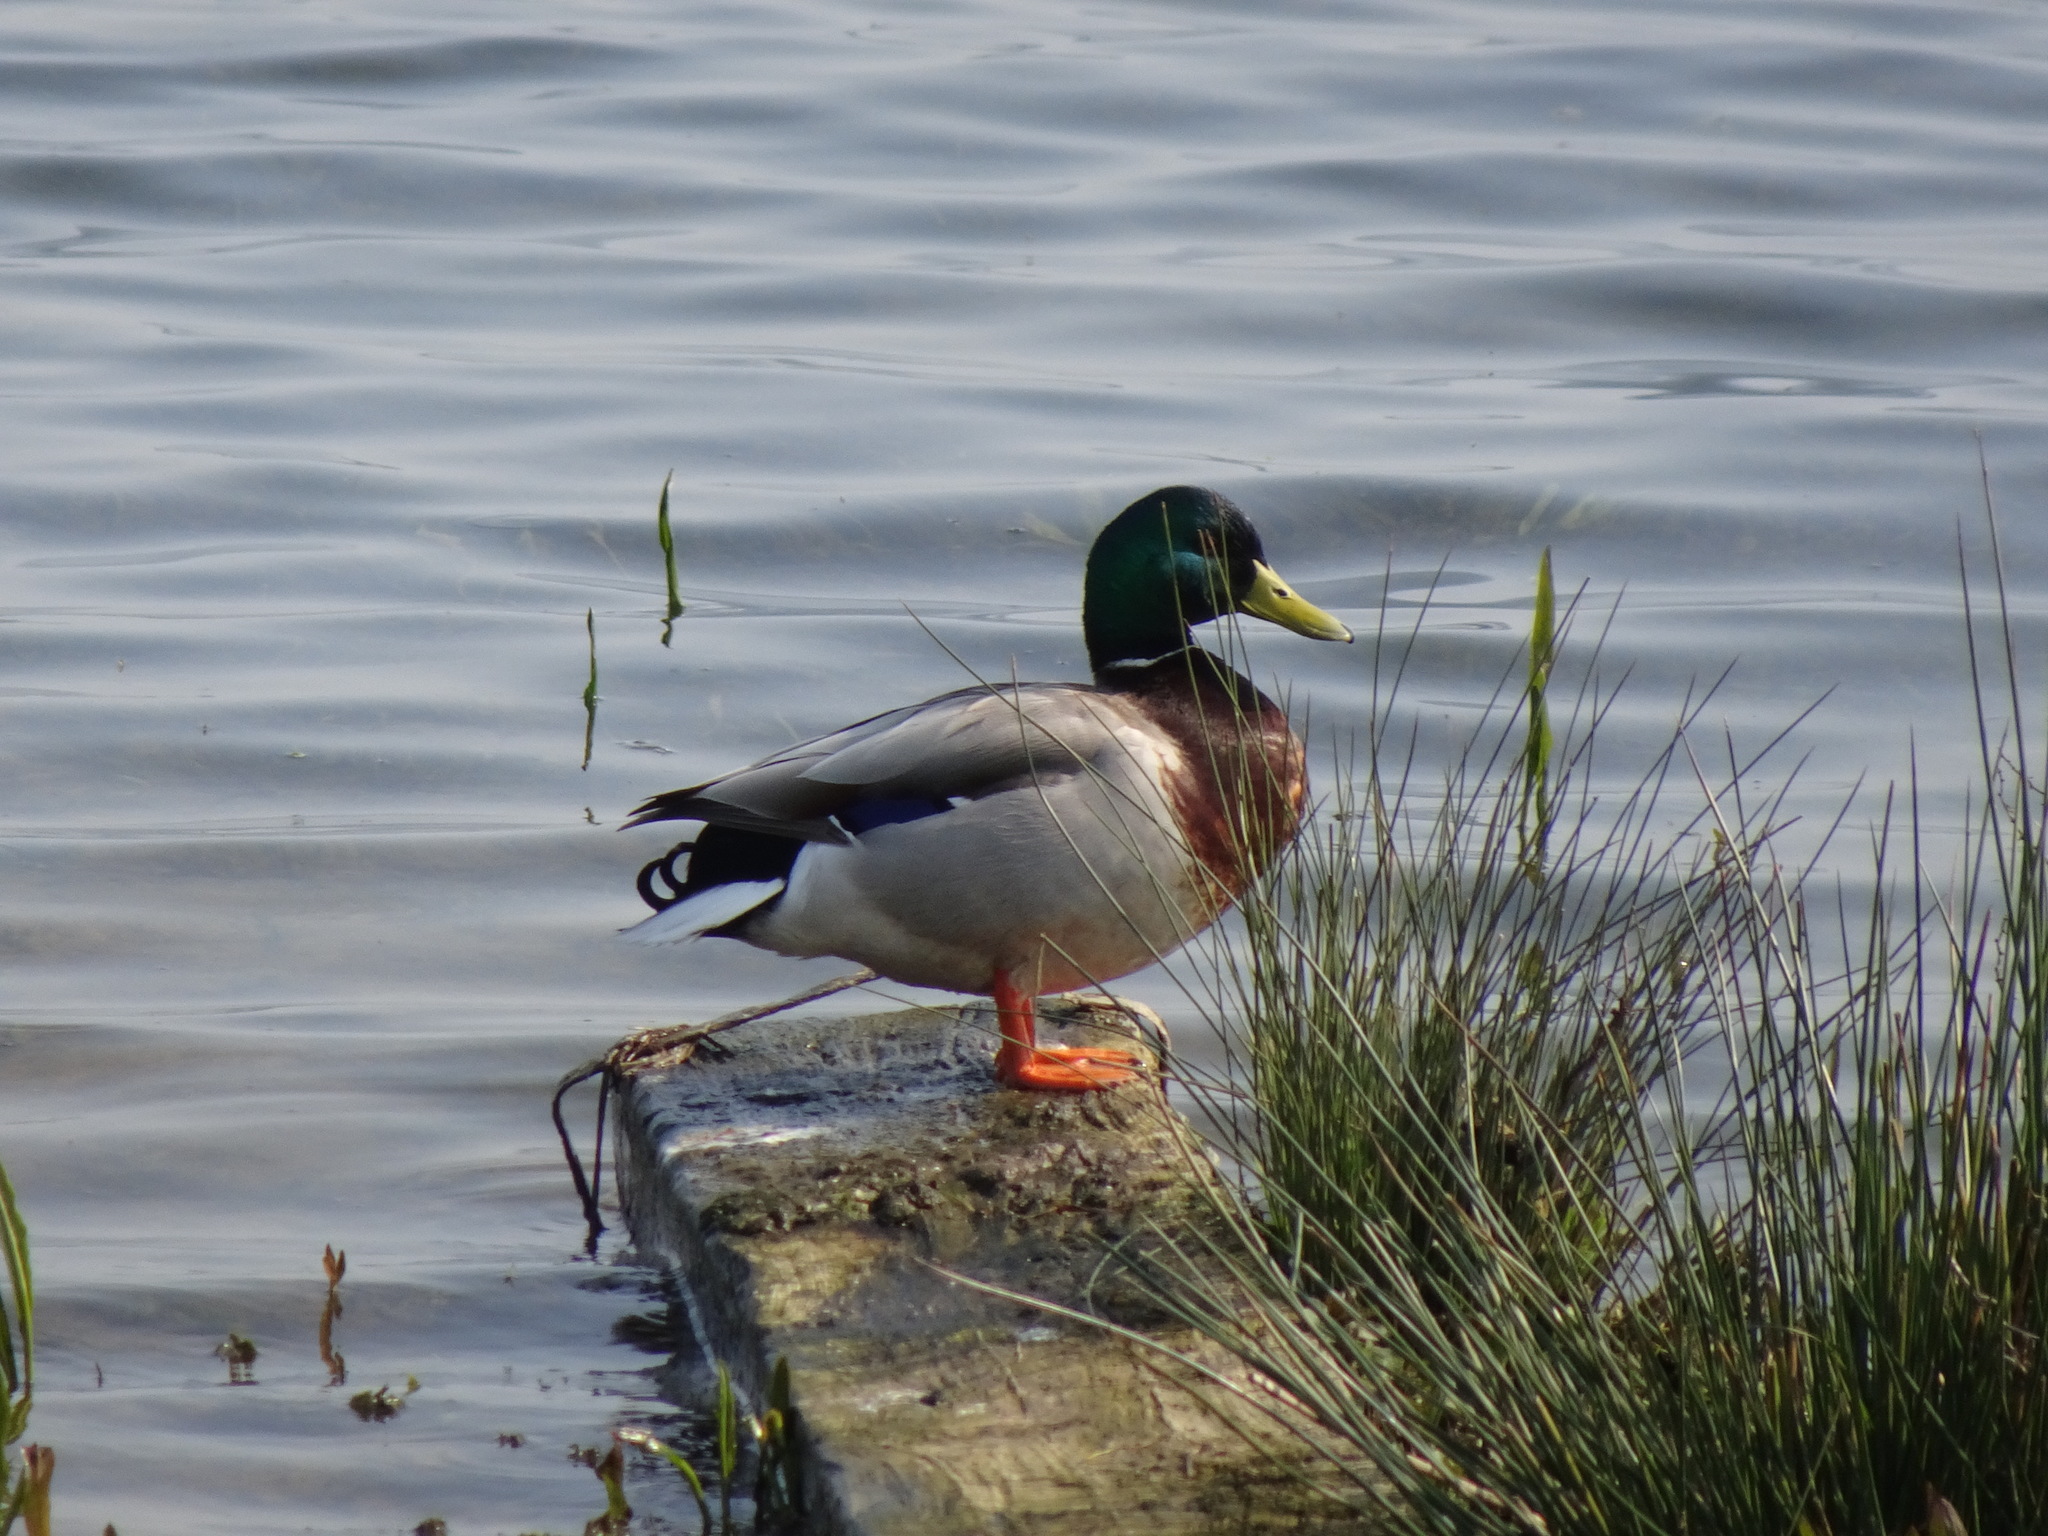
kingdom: Animalia
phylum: Chordata
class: Aves
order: Anseriformes
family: Anatidae
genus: Anas
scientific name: Anas platyrhynchos
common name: Mallard
